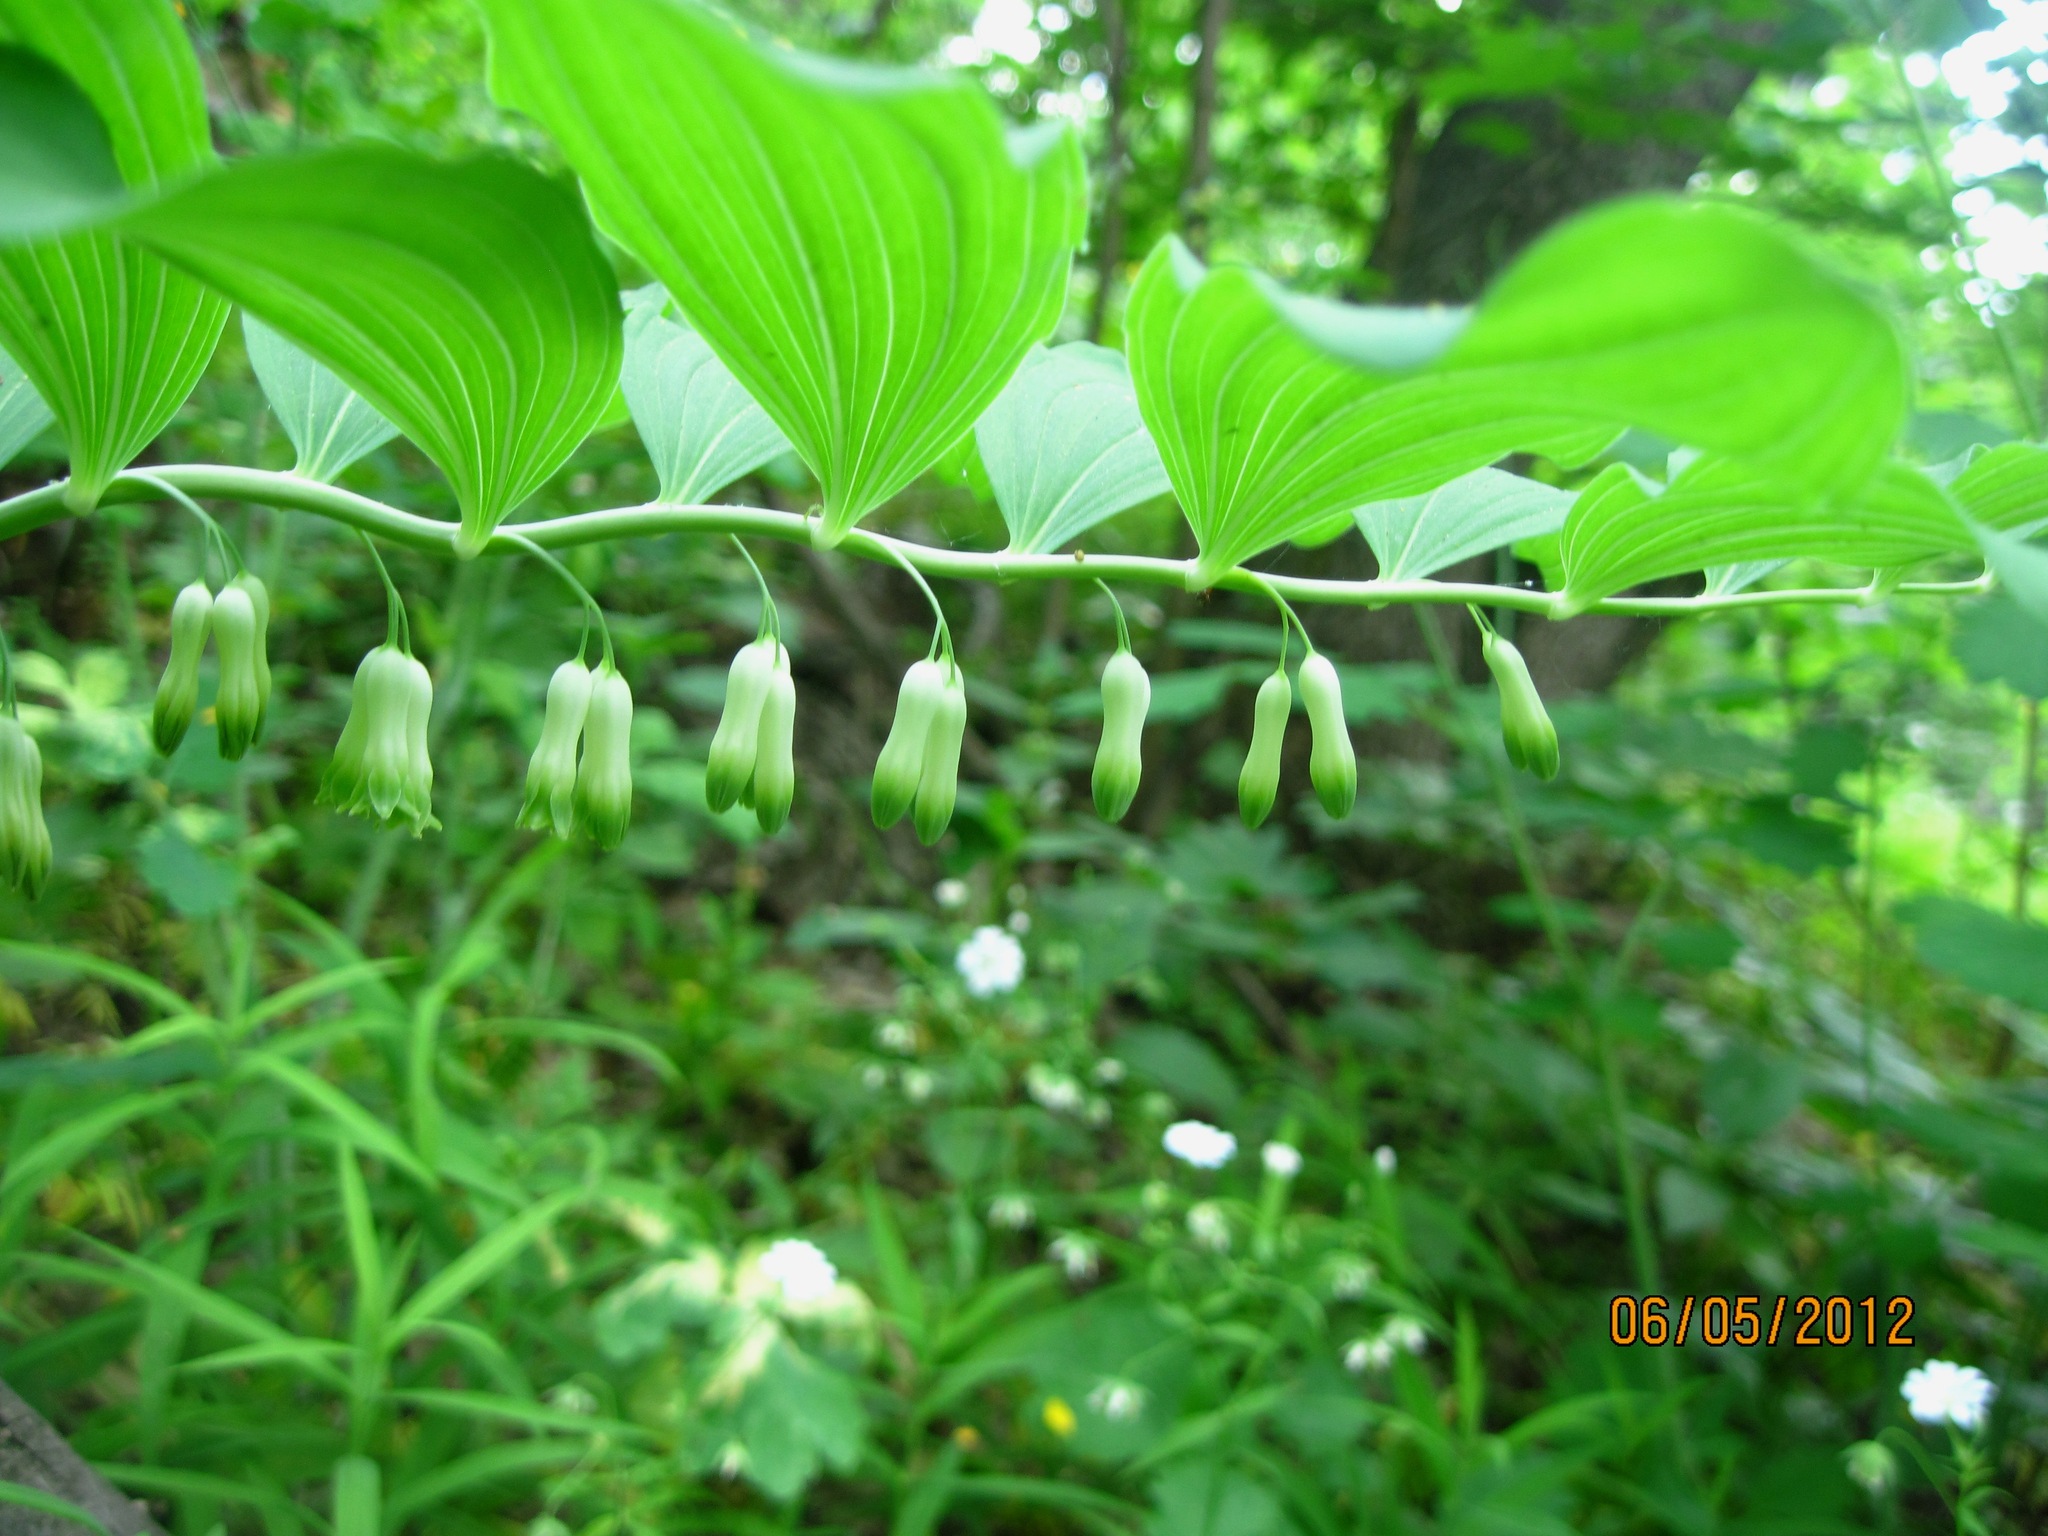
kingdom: Plantae
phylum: Tracheophyta
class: Liliopsida
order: Asparagales
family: Asparagaceae
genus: Polygonatum
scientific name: Polygonatum multiflorum
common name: Solomon's-seal
